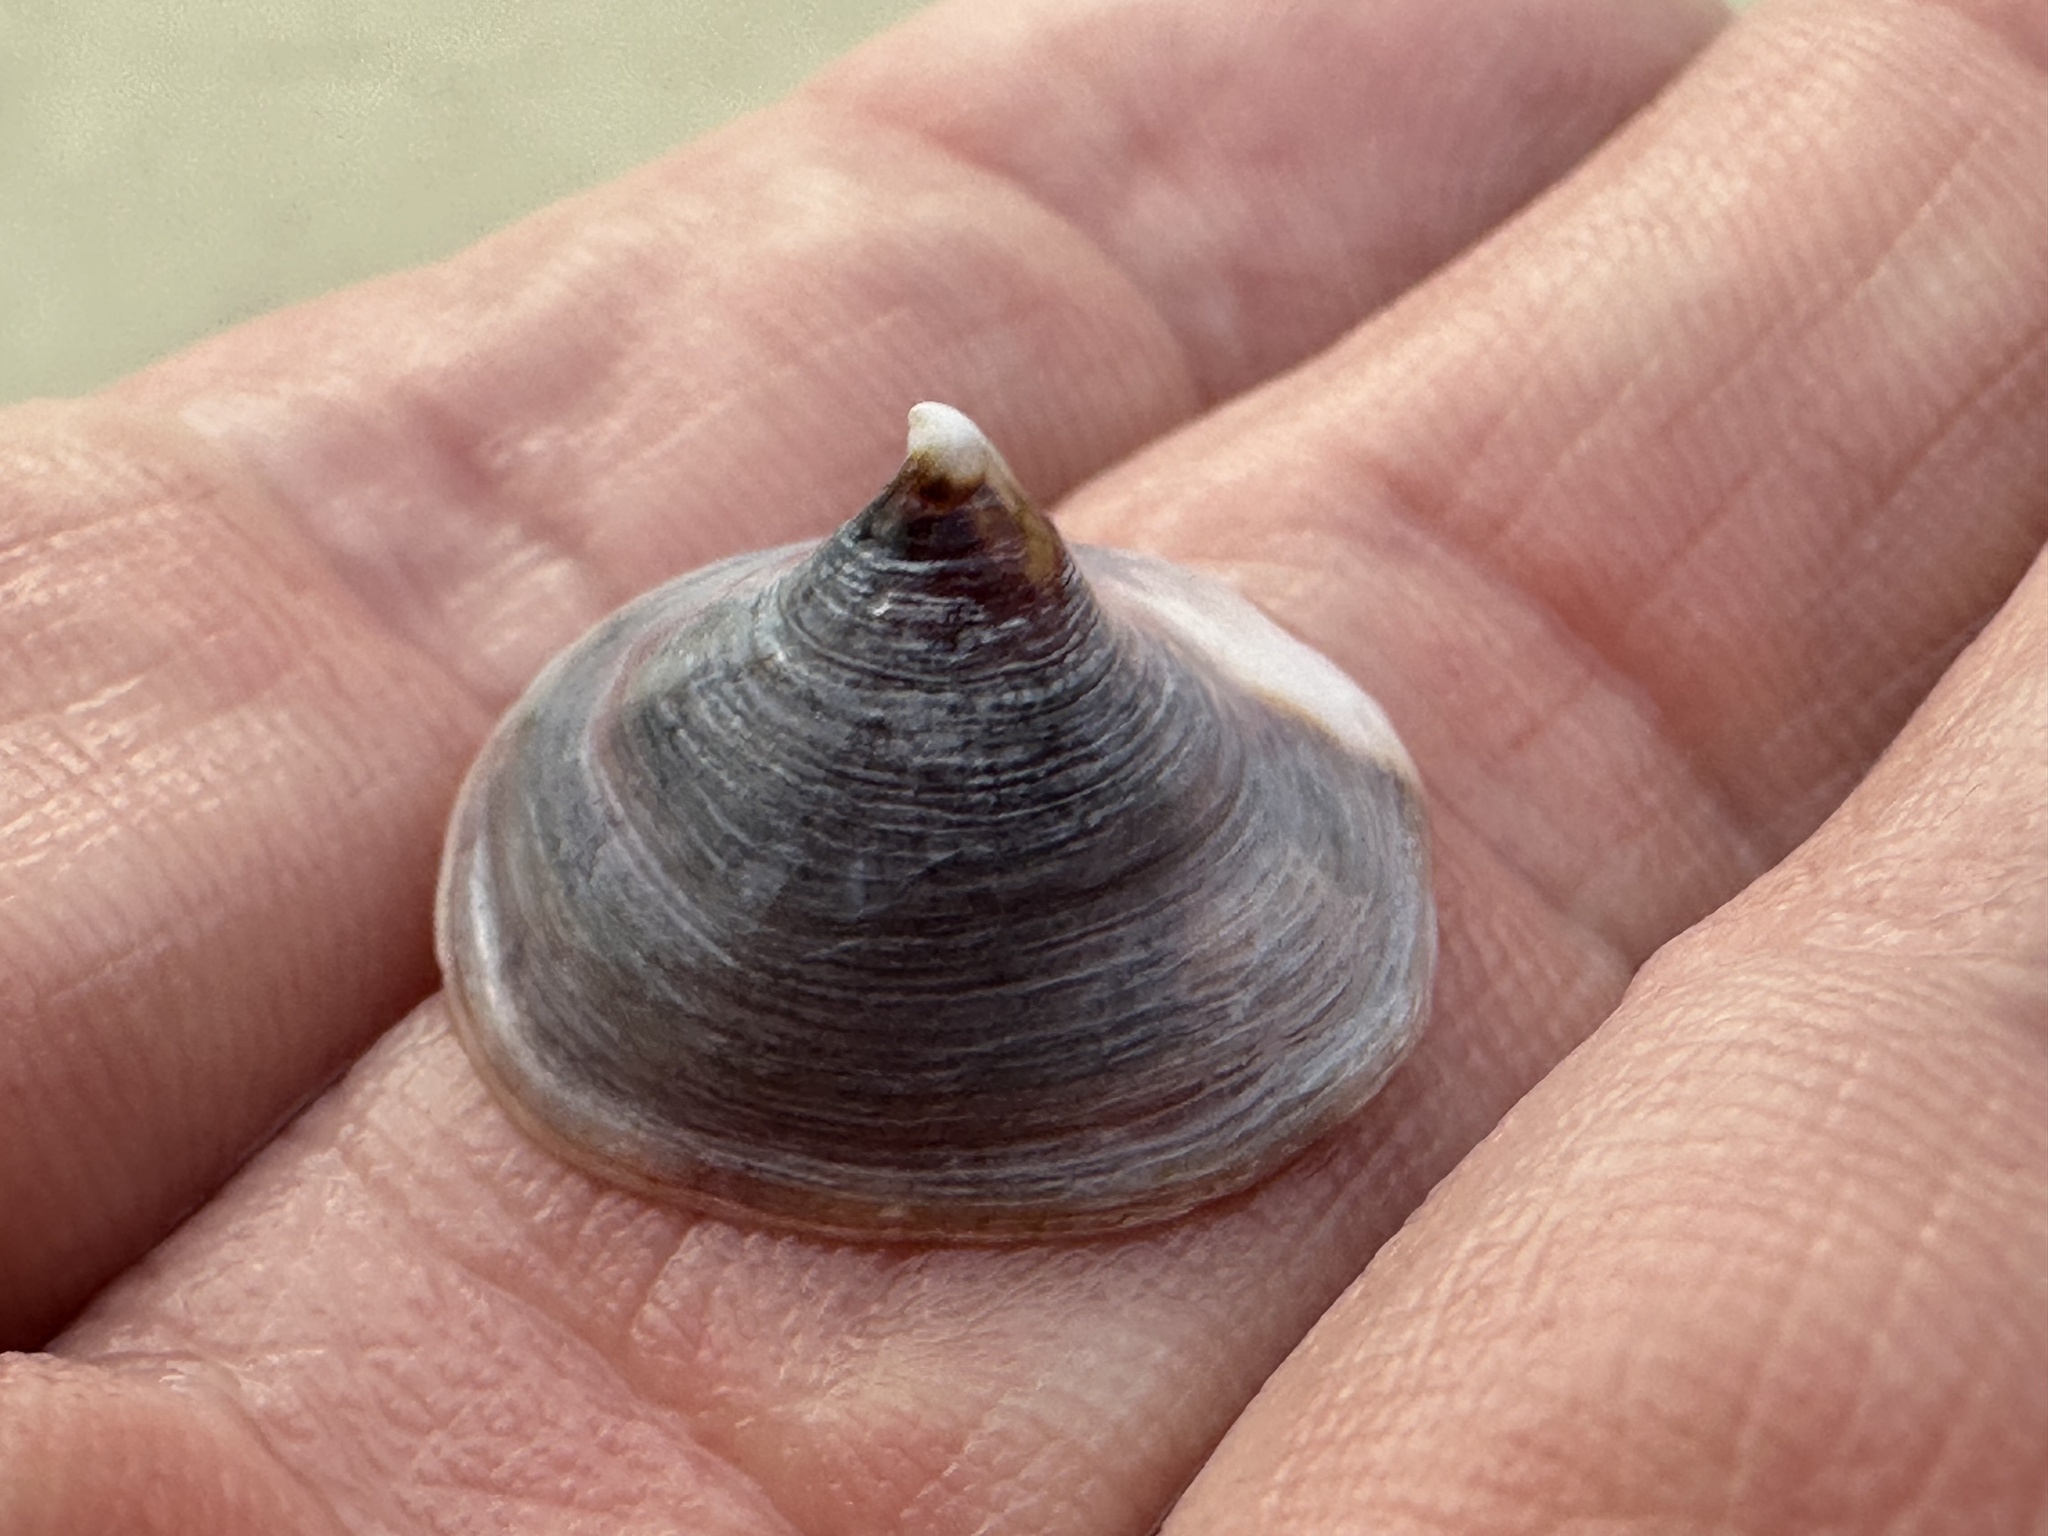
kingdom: Animalia
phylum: Mollusca
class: Gastropoda
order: Littorinimorpha
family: Calyptraeidae
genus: Desmaulus
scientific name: Desmaulus extinctorium
